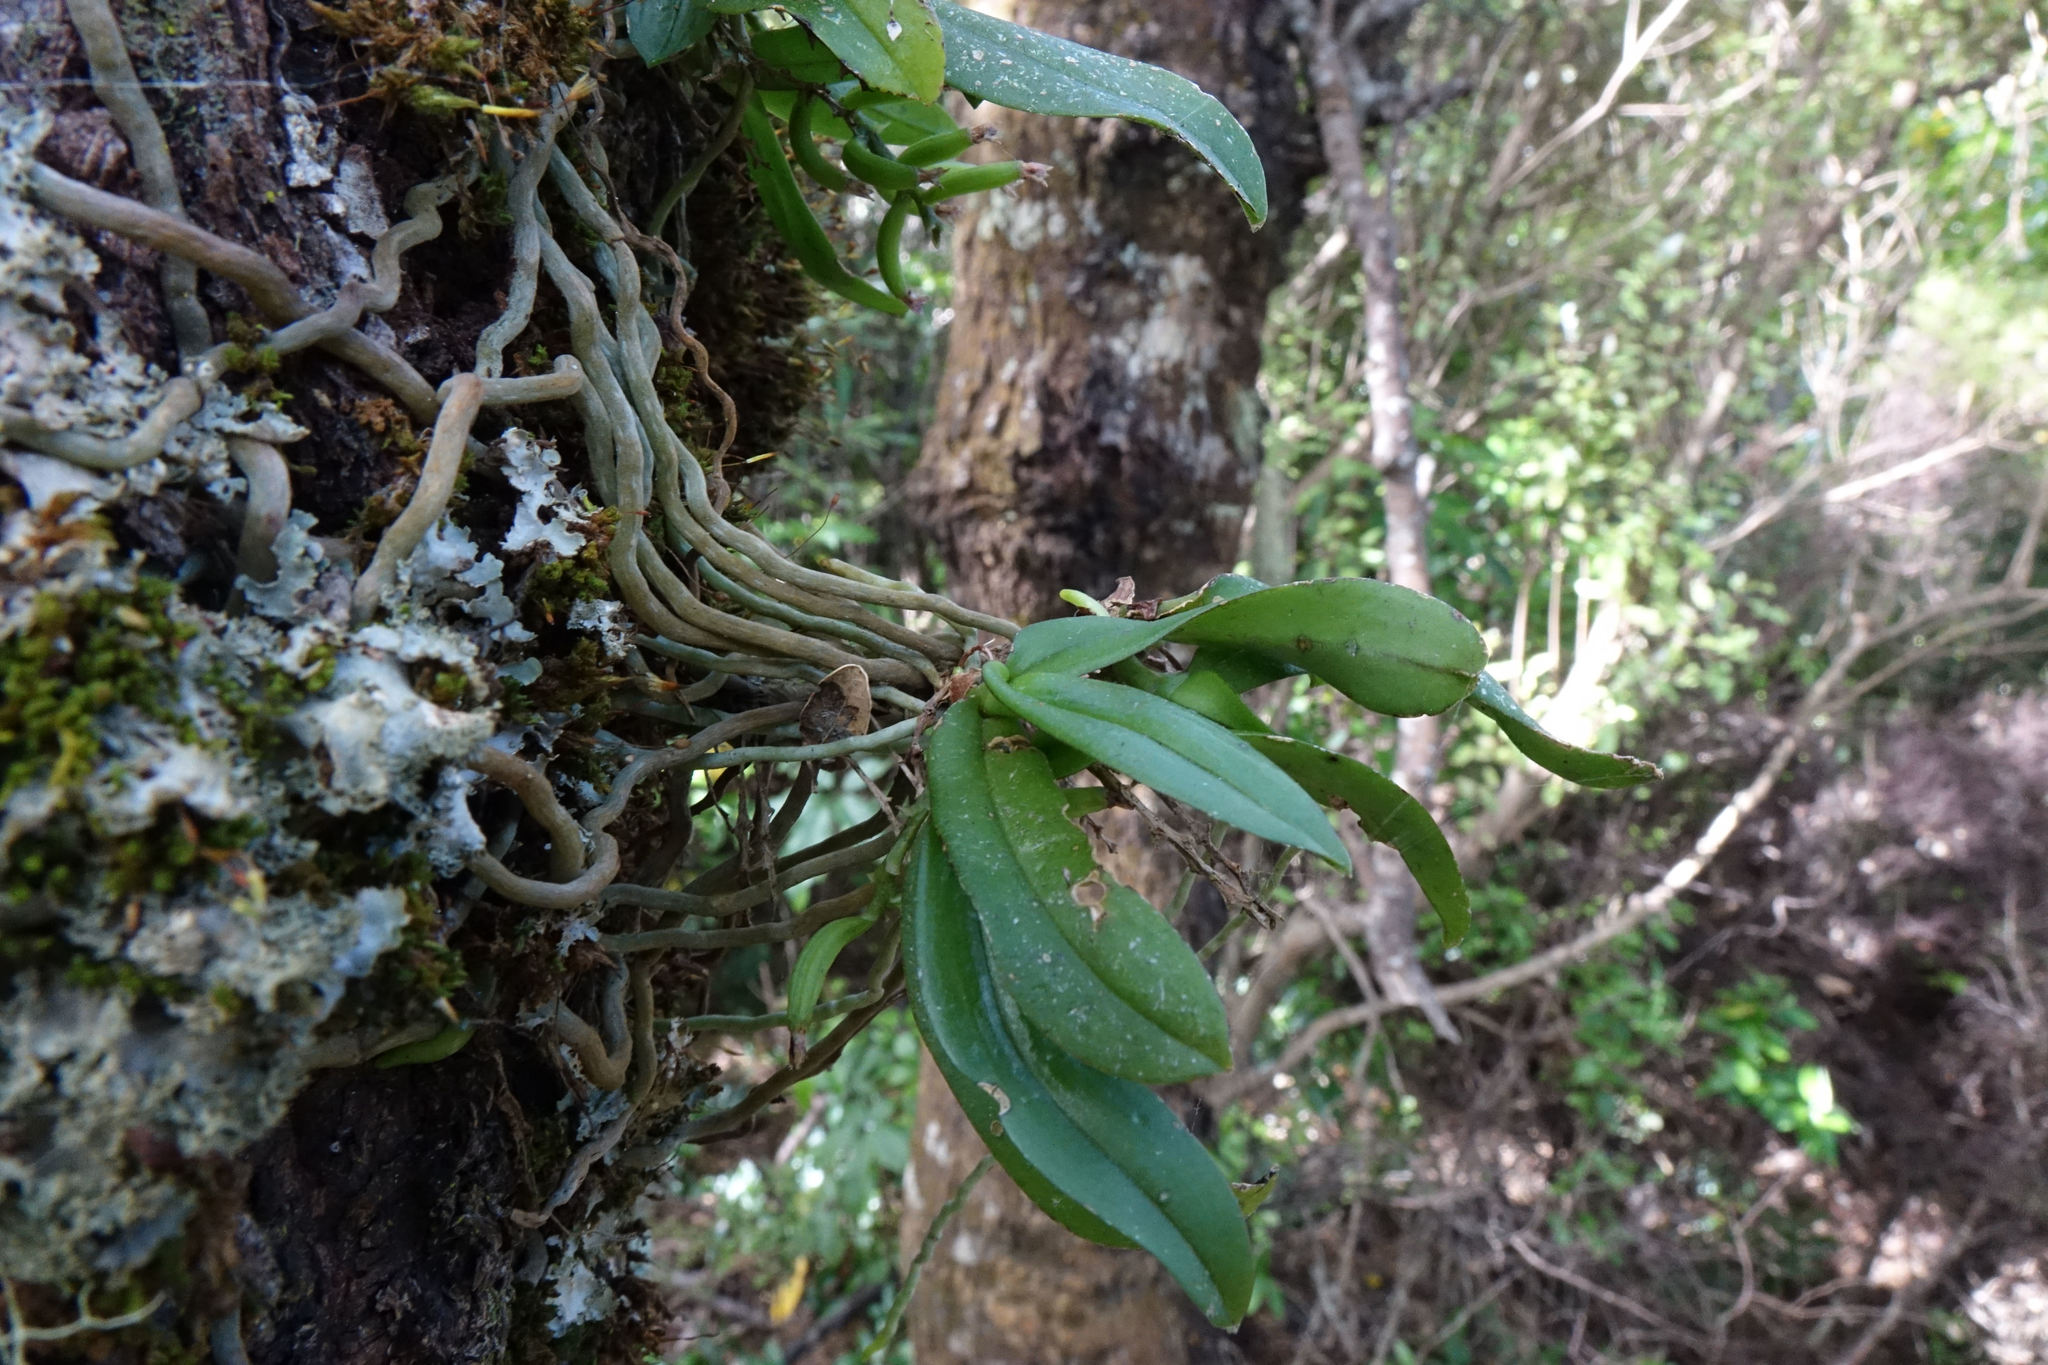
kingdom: Plantae
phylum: Tracheophyta
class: Liliopsida
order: Asparagales
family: Orchidaceae
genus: Drymoanthus
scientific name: Drymoanthus adversus
